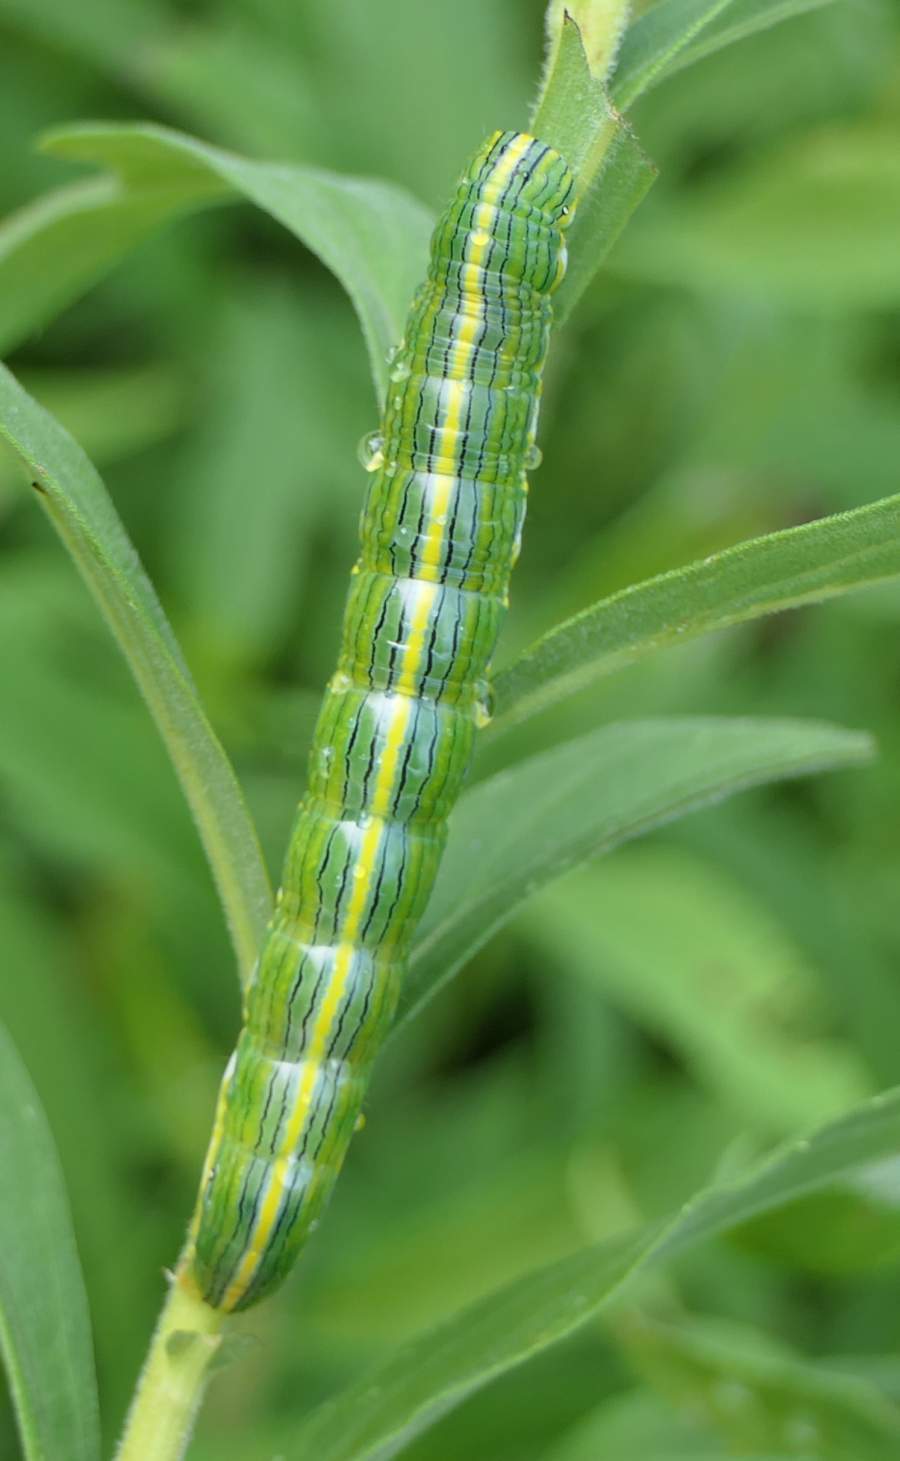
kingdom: Animalia
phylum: Arthropoda
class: Insecta
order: Lepidoptera
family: Noctuidae
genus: Cucullia
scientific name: Cucullia asteroides
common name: Asteroid moth
